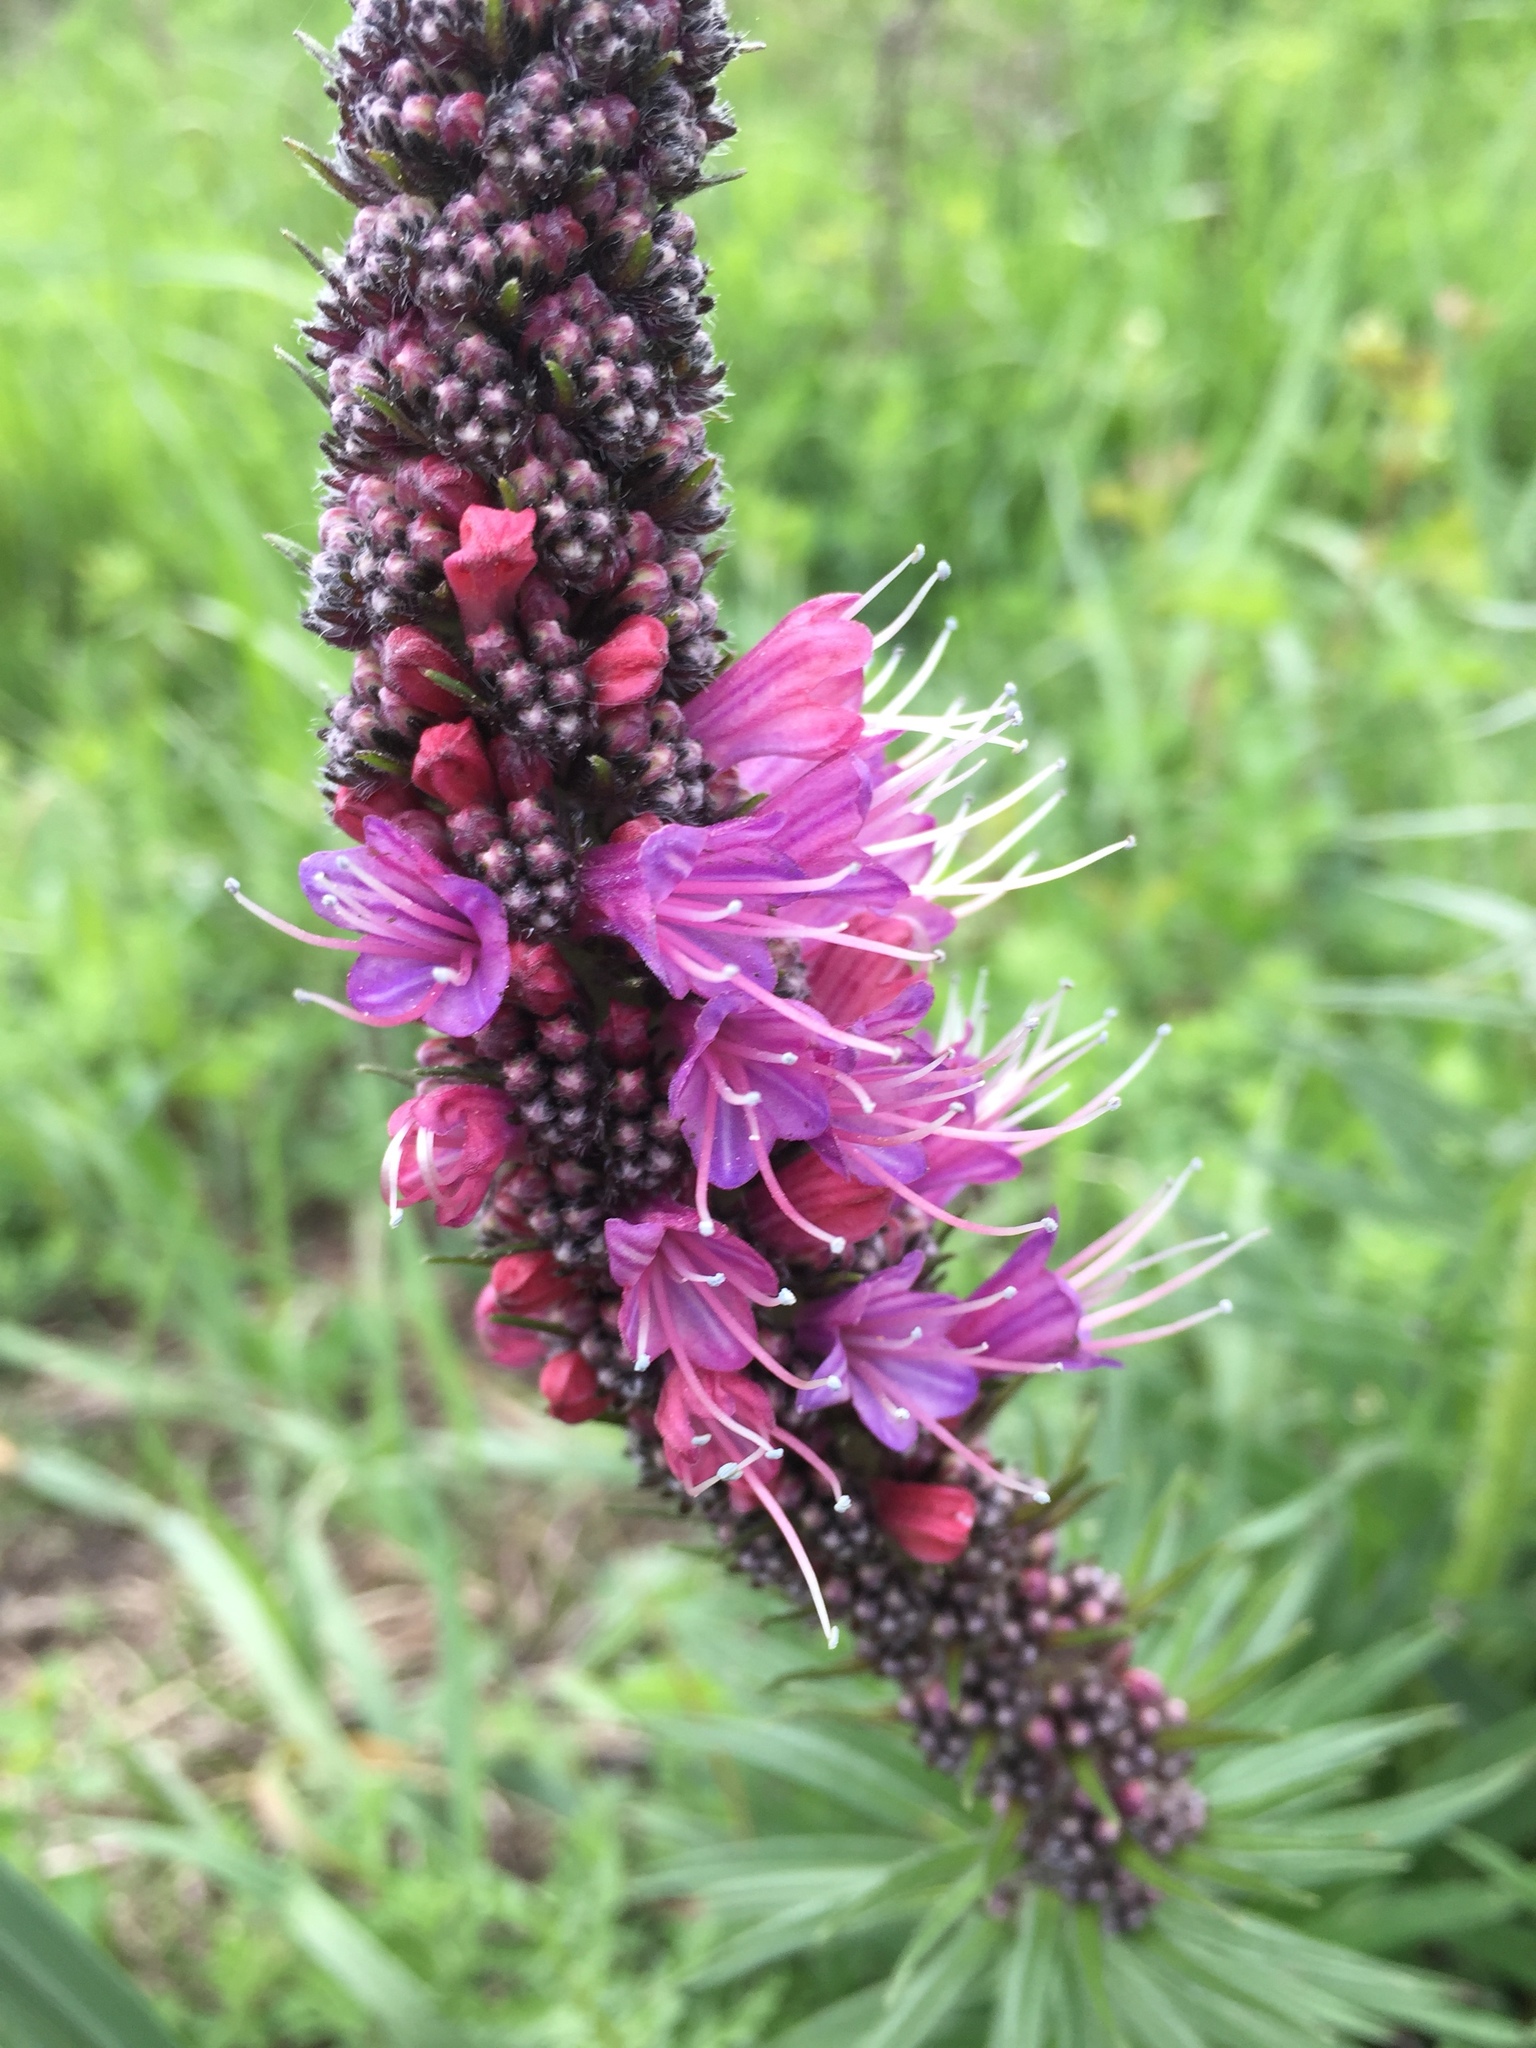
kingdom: Plantae
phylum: Tracheophyta
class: Magnoliopsida
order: Boraginales
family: Boraginaceae
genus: Pontechium
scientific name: Pontechium maculatum
